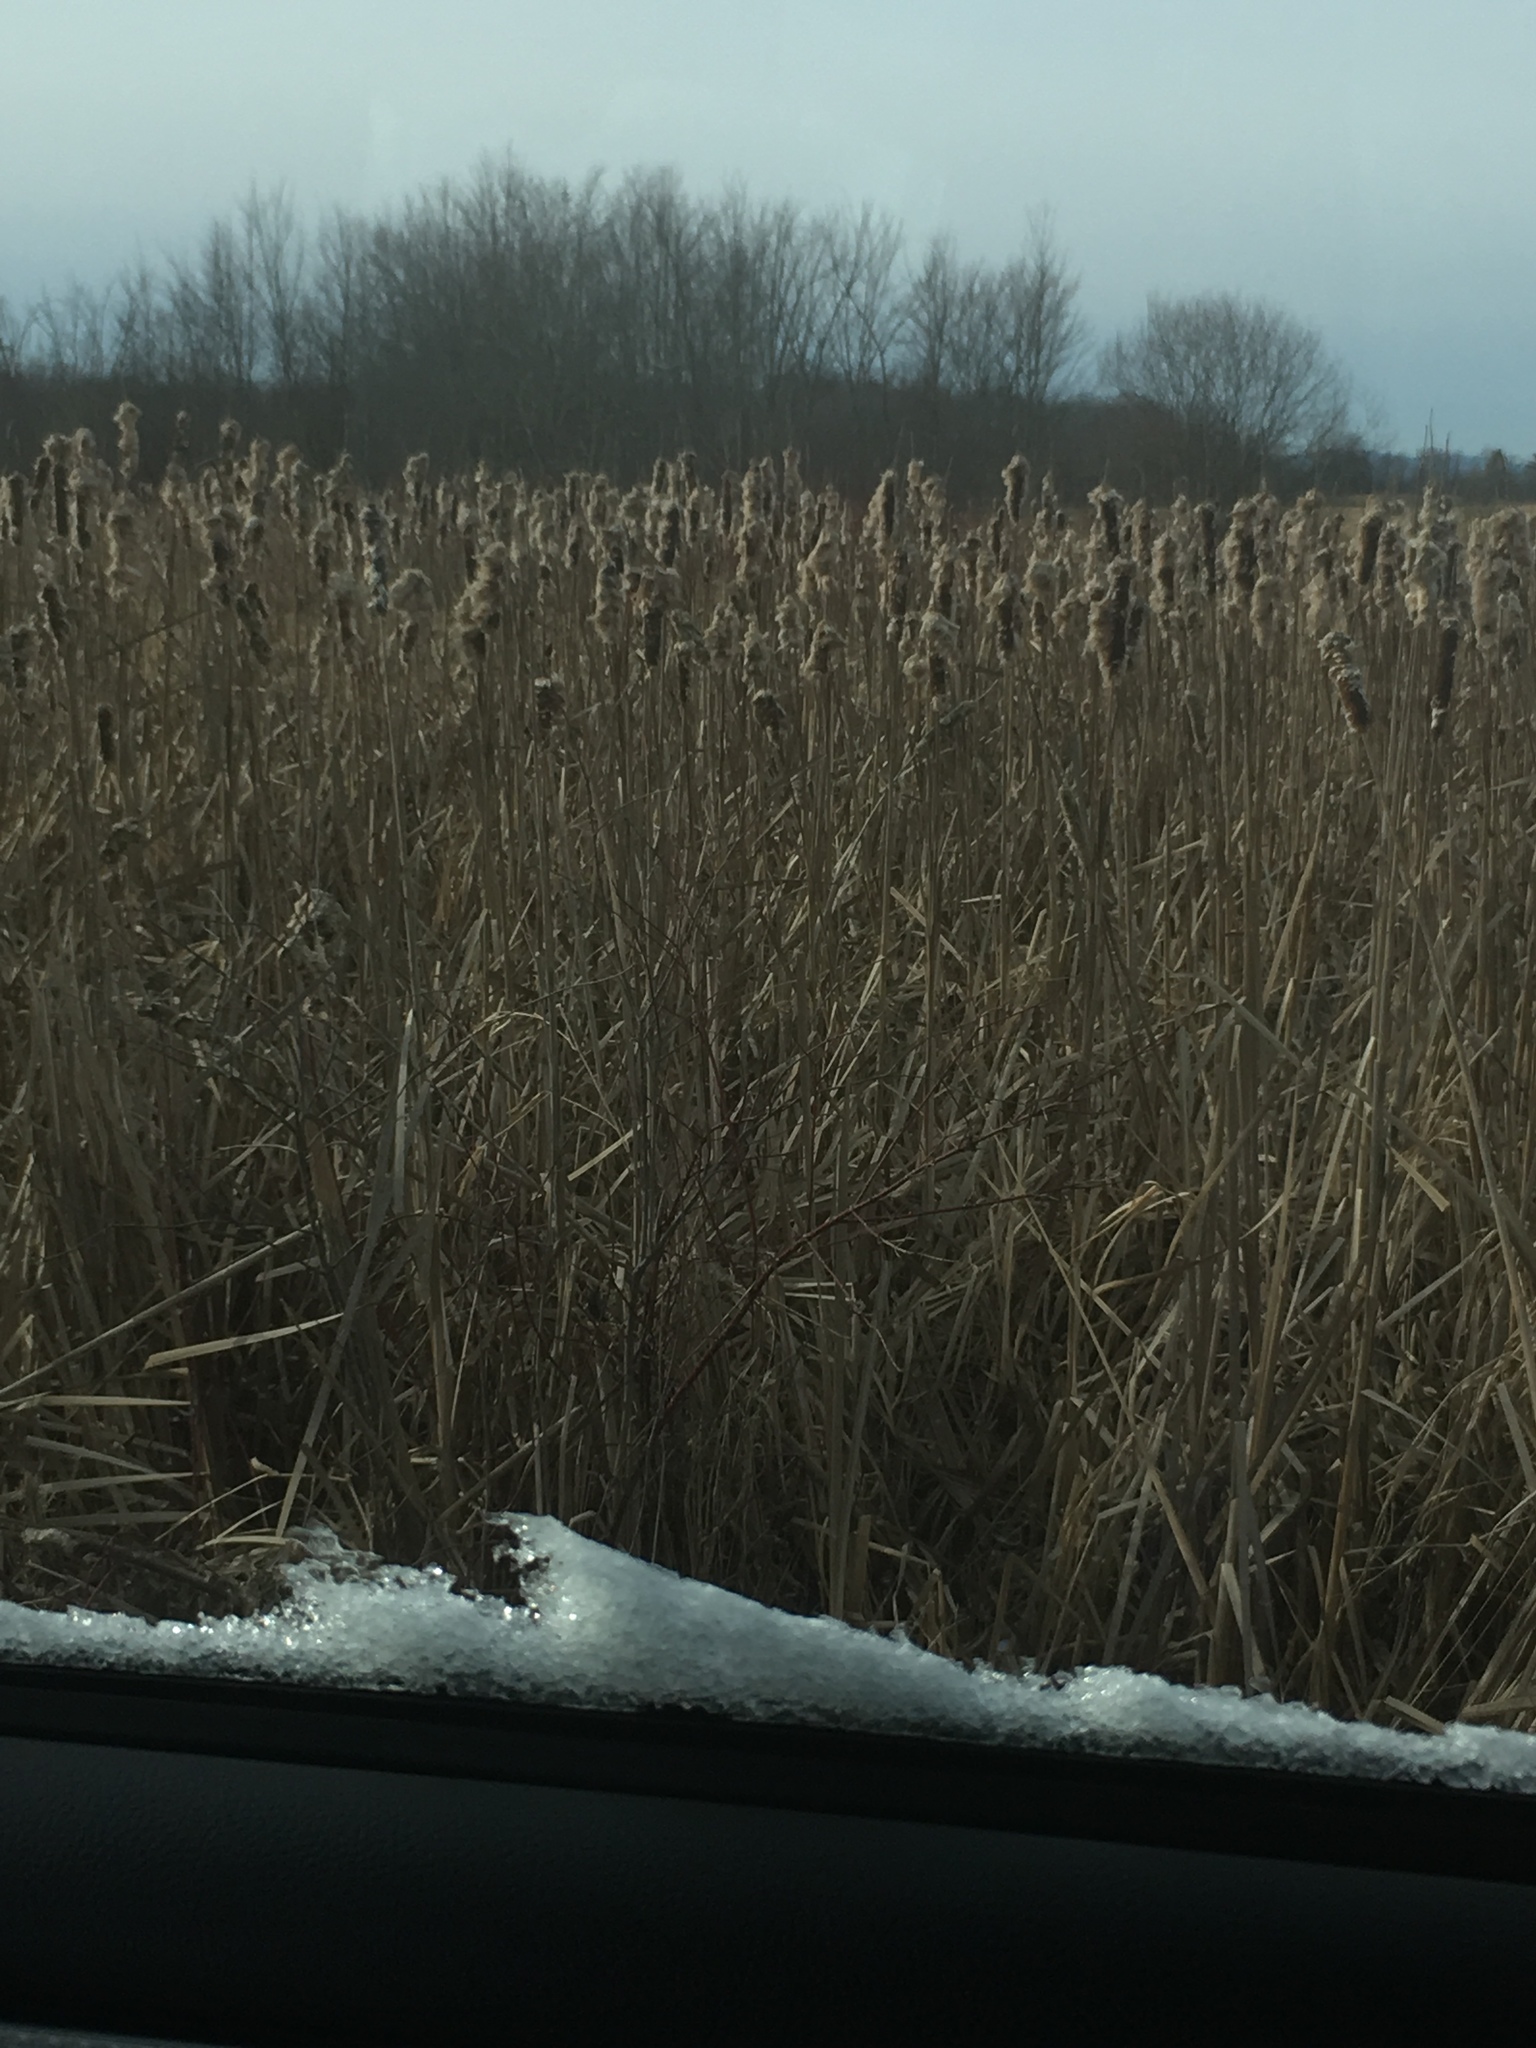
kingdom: Plantae
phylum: Tracheophyta
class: Liliopsida
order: Poales
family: Typhaceae
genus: Typha
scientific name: Typha
